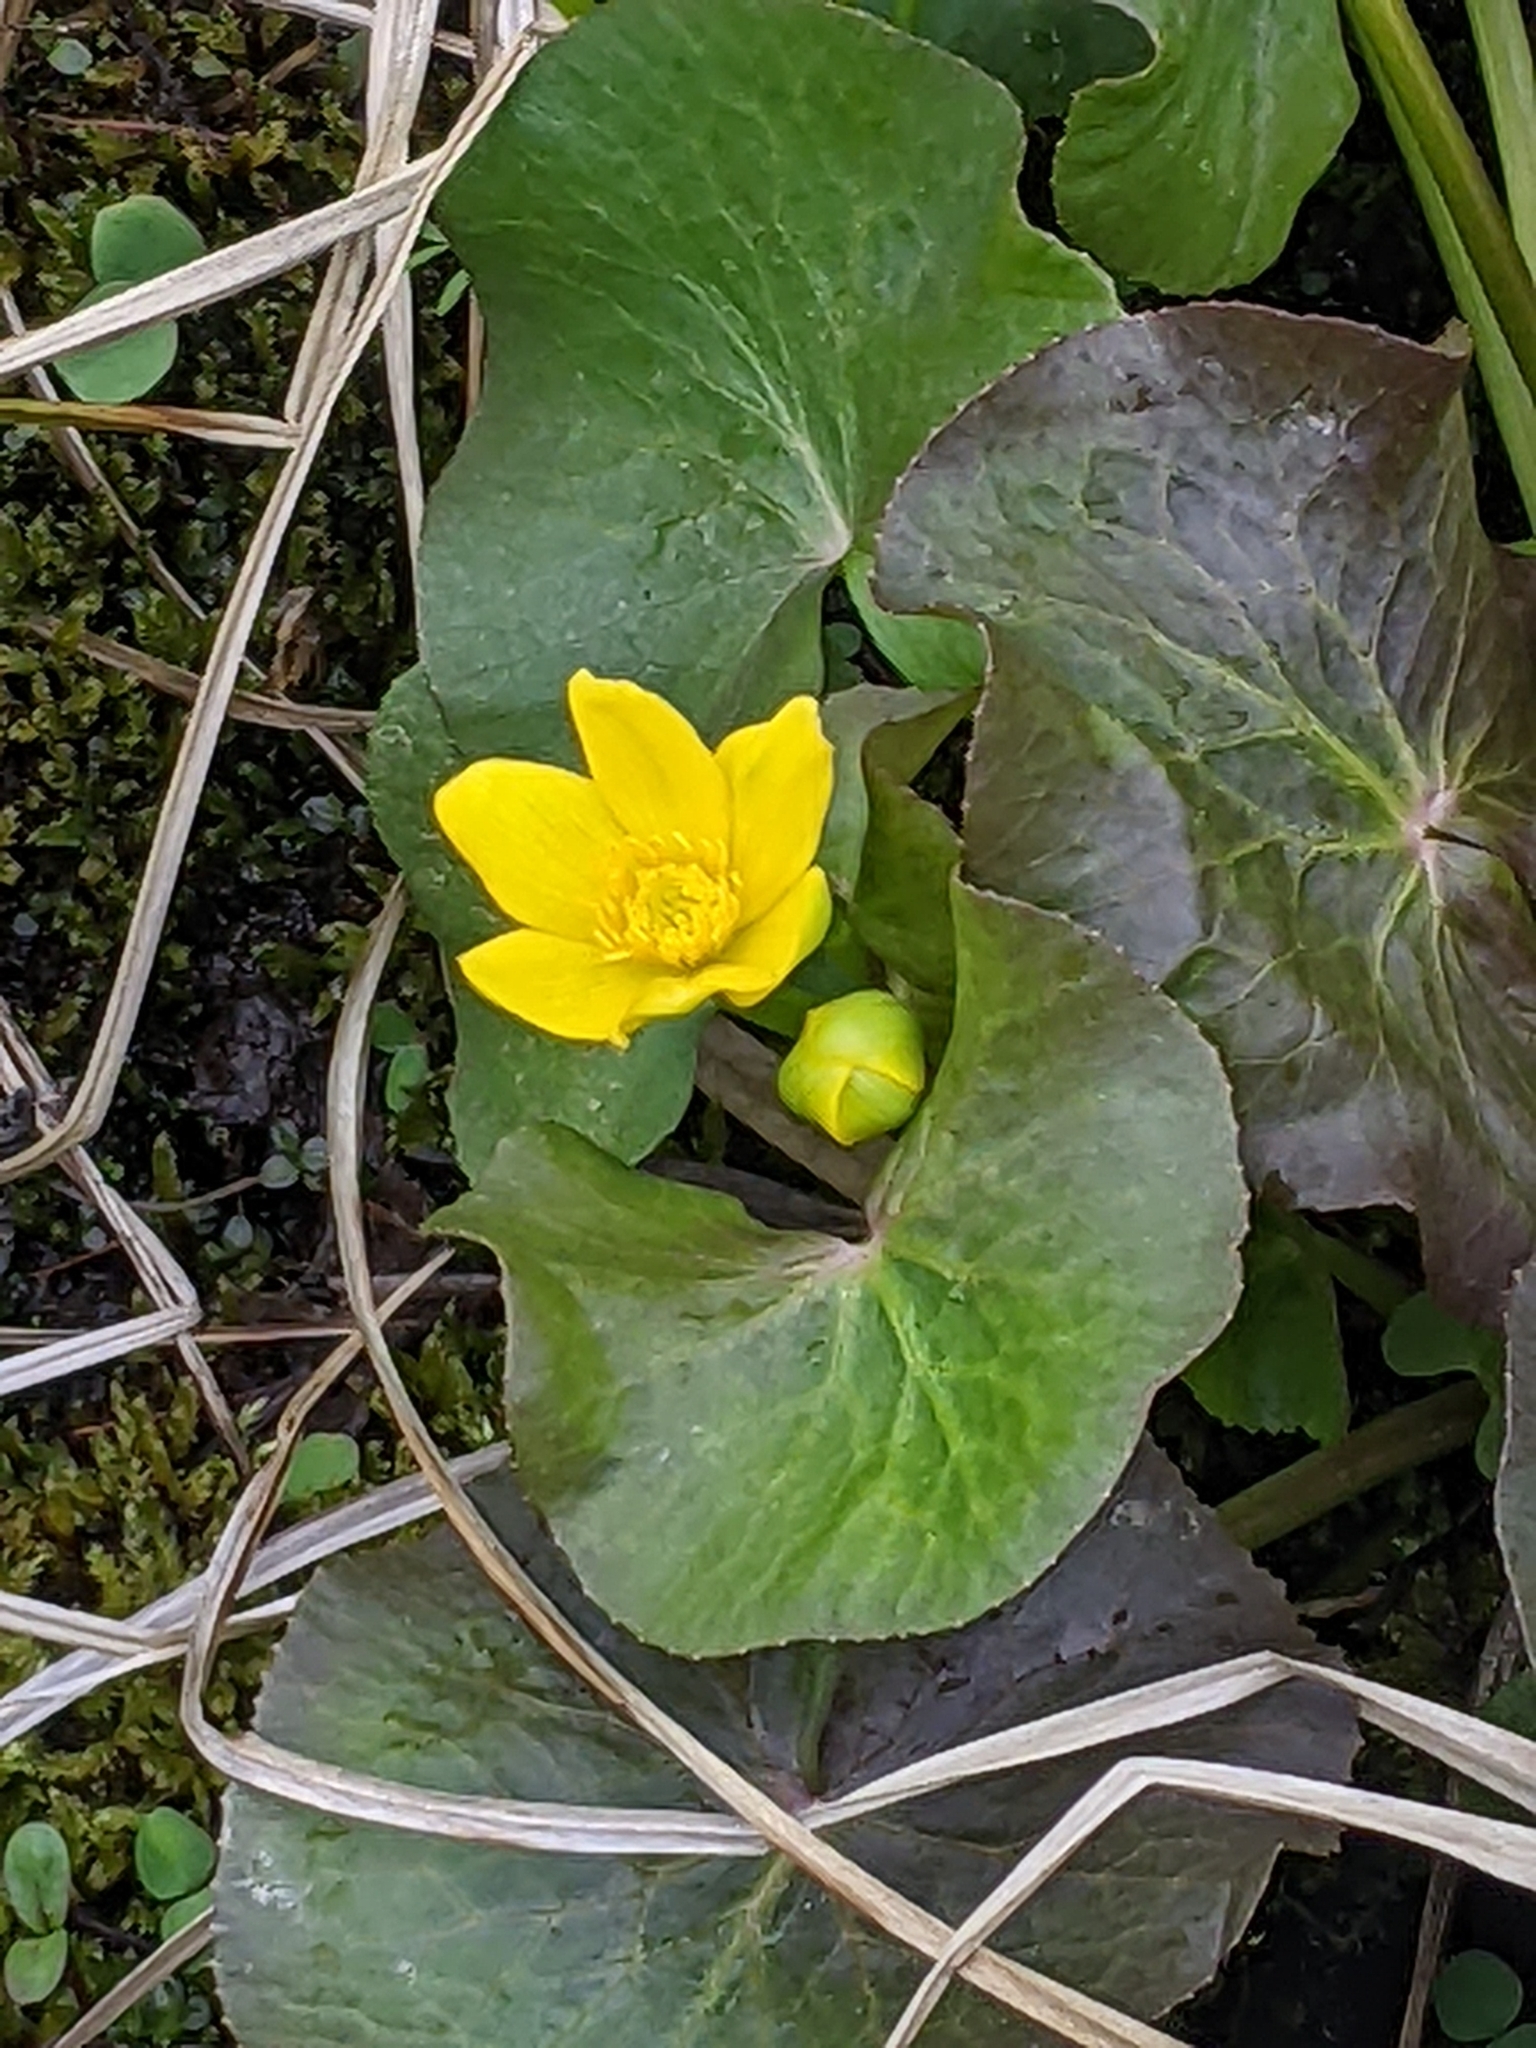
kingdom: Plantae
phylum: Tracheophyta
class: Magnoliopsida
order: Ranunculales
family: Ranunculaceae
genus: Caltha
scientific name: Caltha palustris
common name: Marsh marigold
